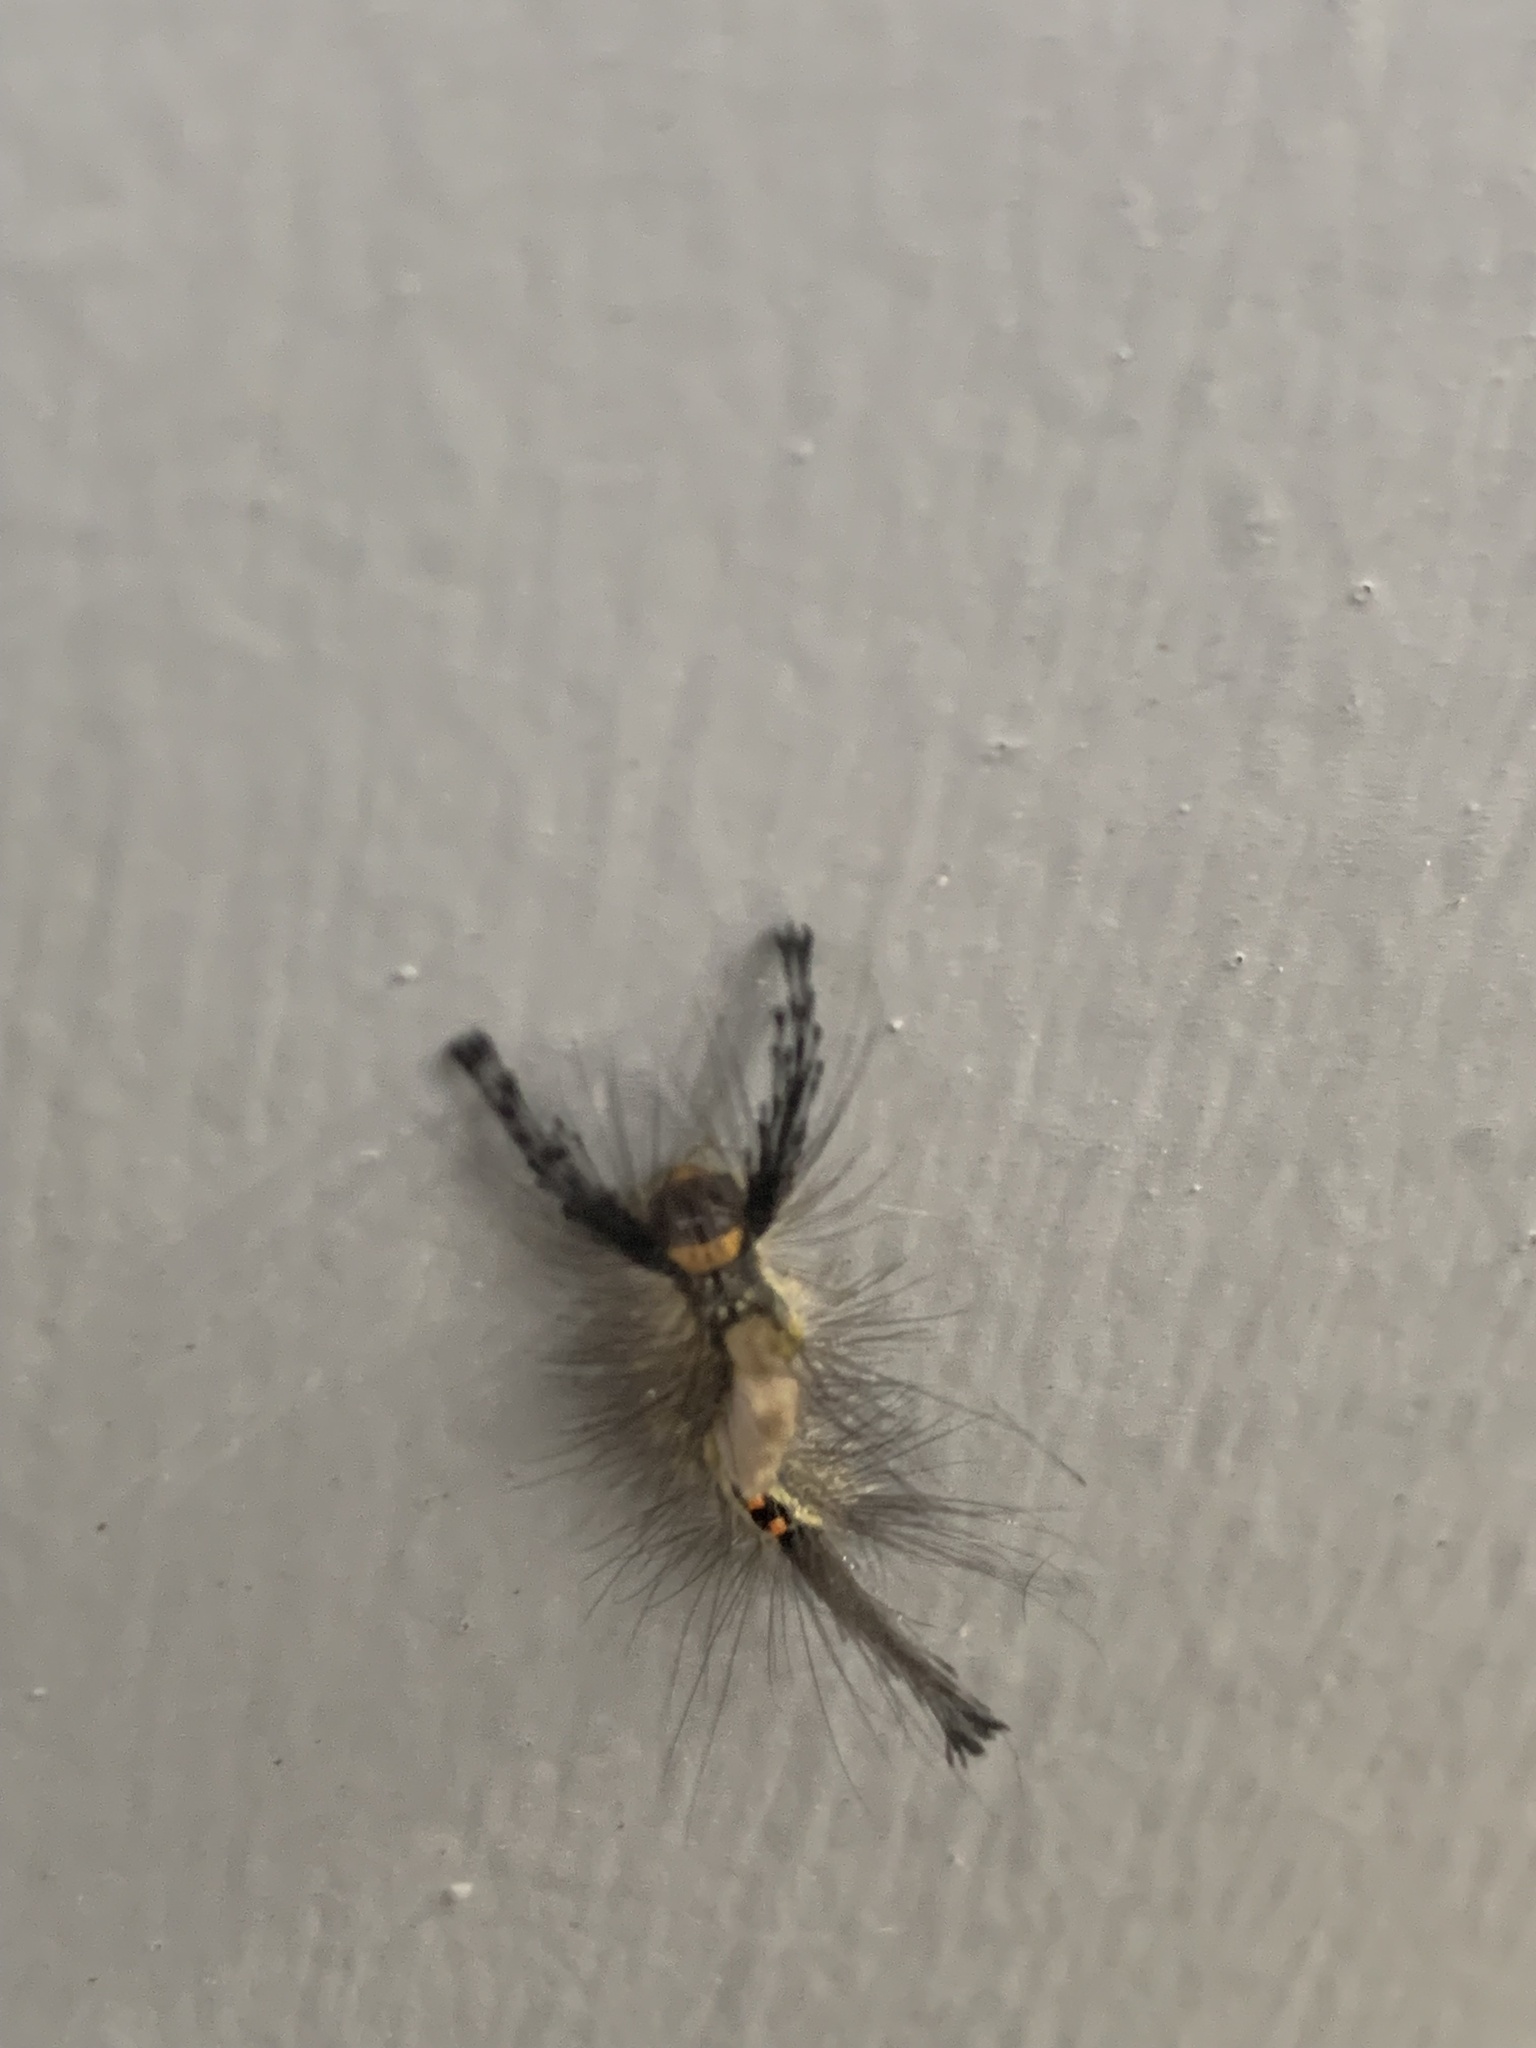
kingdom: Animalia
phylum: Arthropoda
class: Insecta
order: Lepidoptera
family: Erebidae
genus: Orgyia
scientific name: Orgyia leucostigma
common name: White-marked tussock moth
